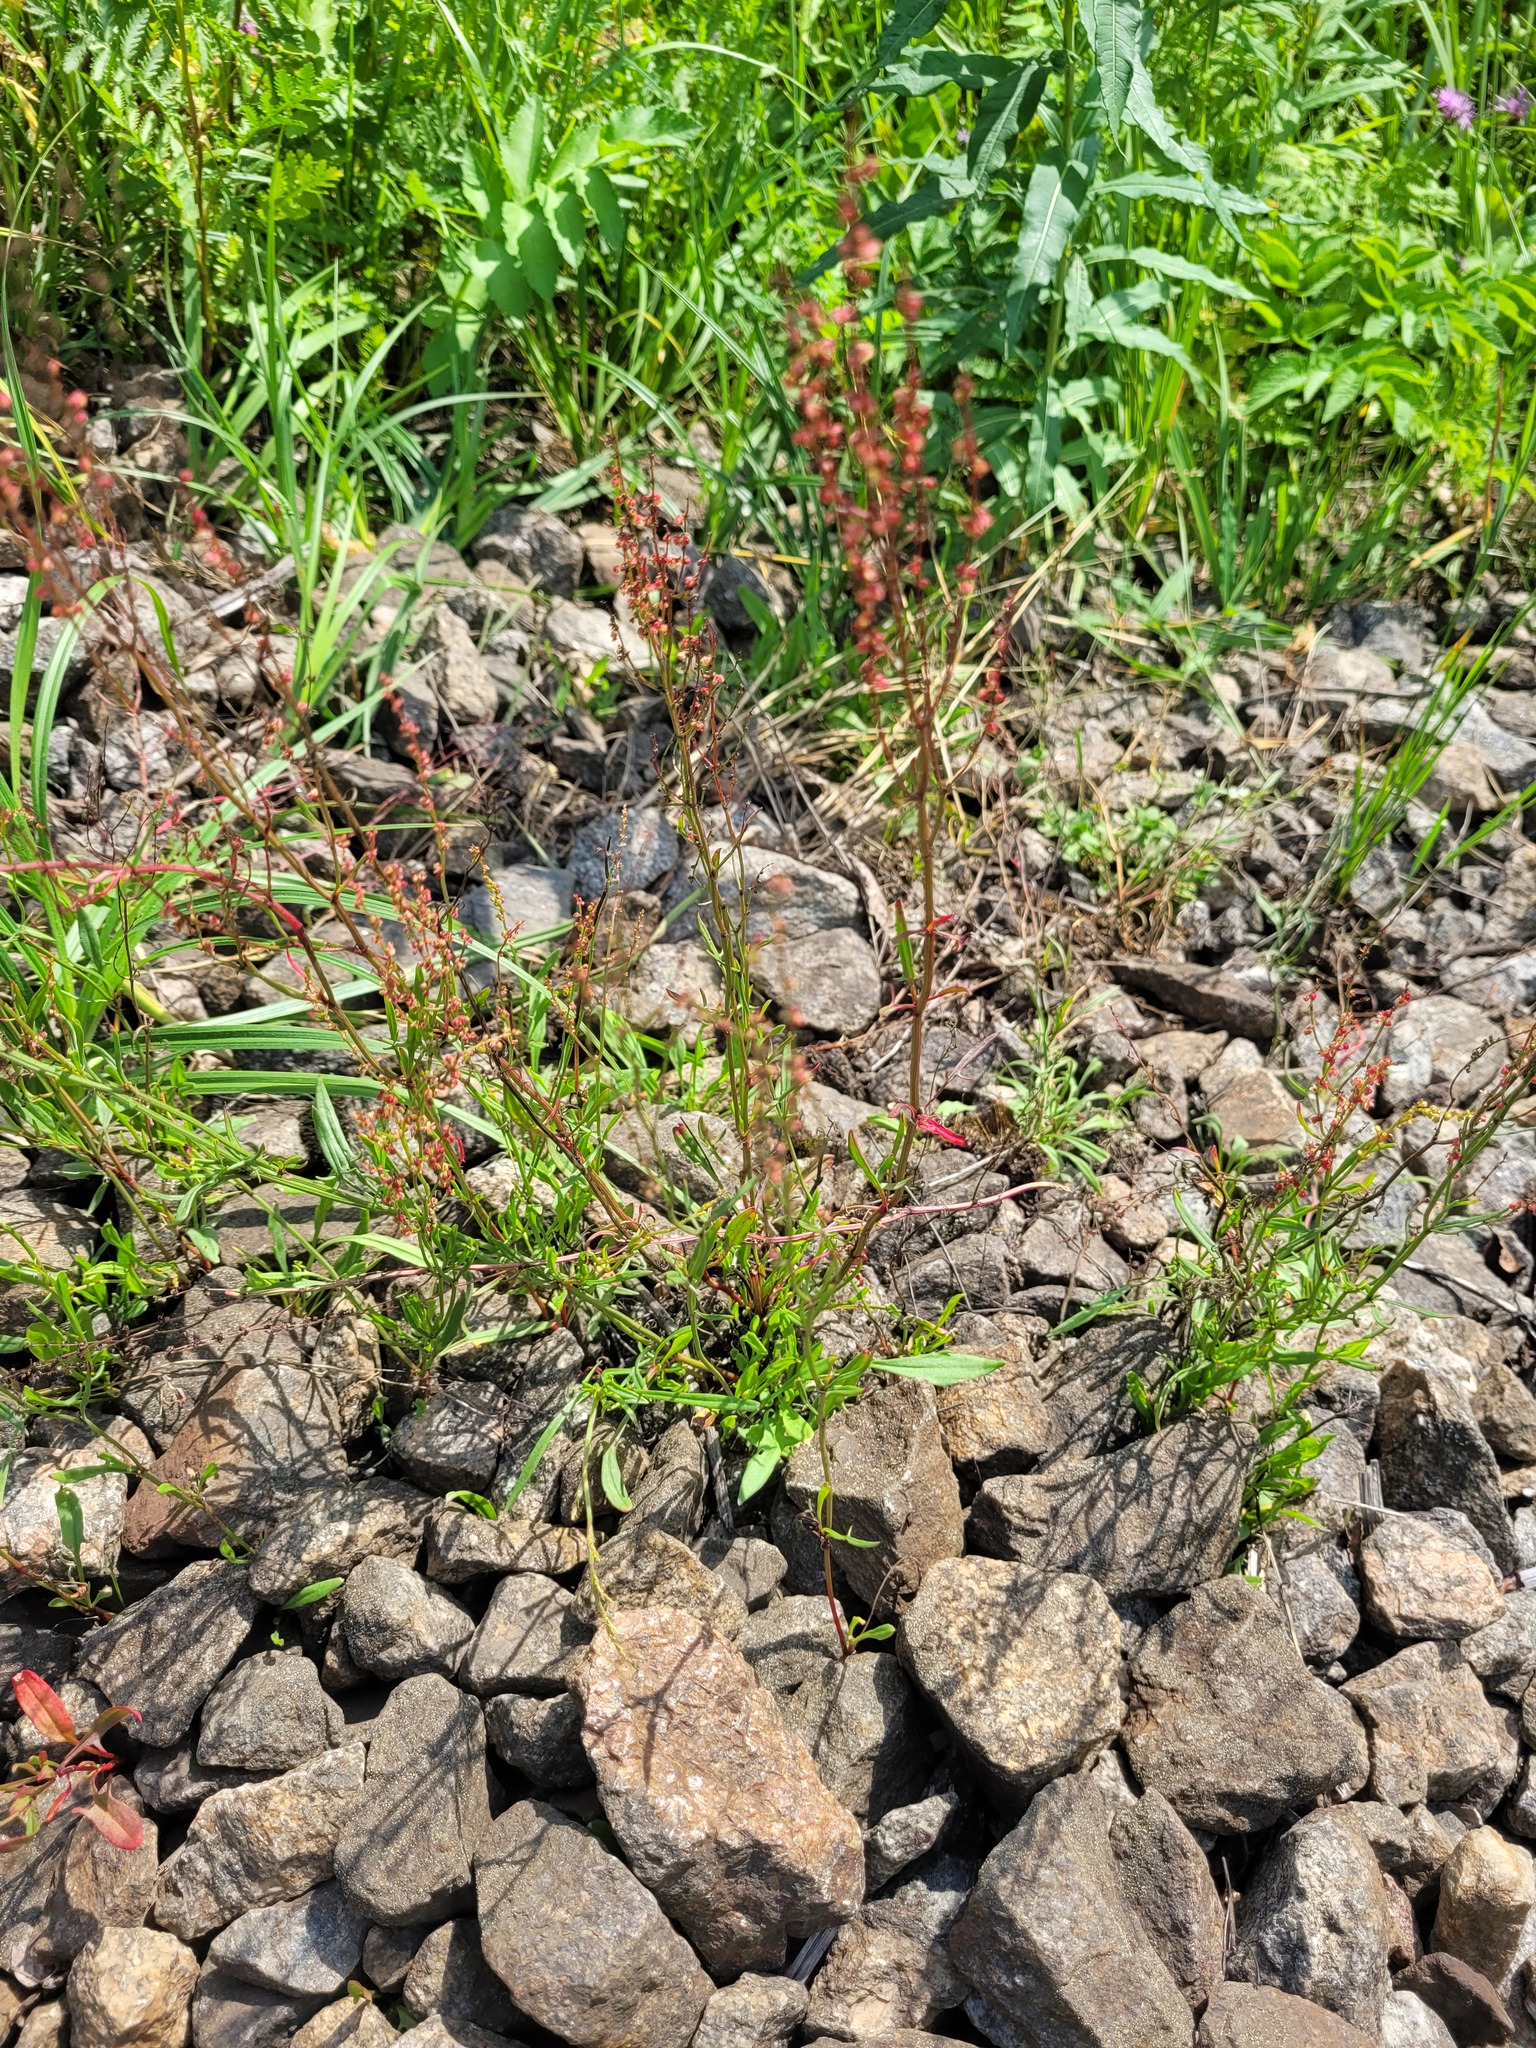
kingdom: Plantae
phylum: Tracheophyta
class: Magnoliopsida
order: Caryophyllales
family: Polygonaceae
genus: Rumex
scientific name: Rumex acetosella
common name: Common sheep sorrel
